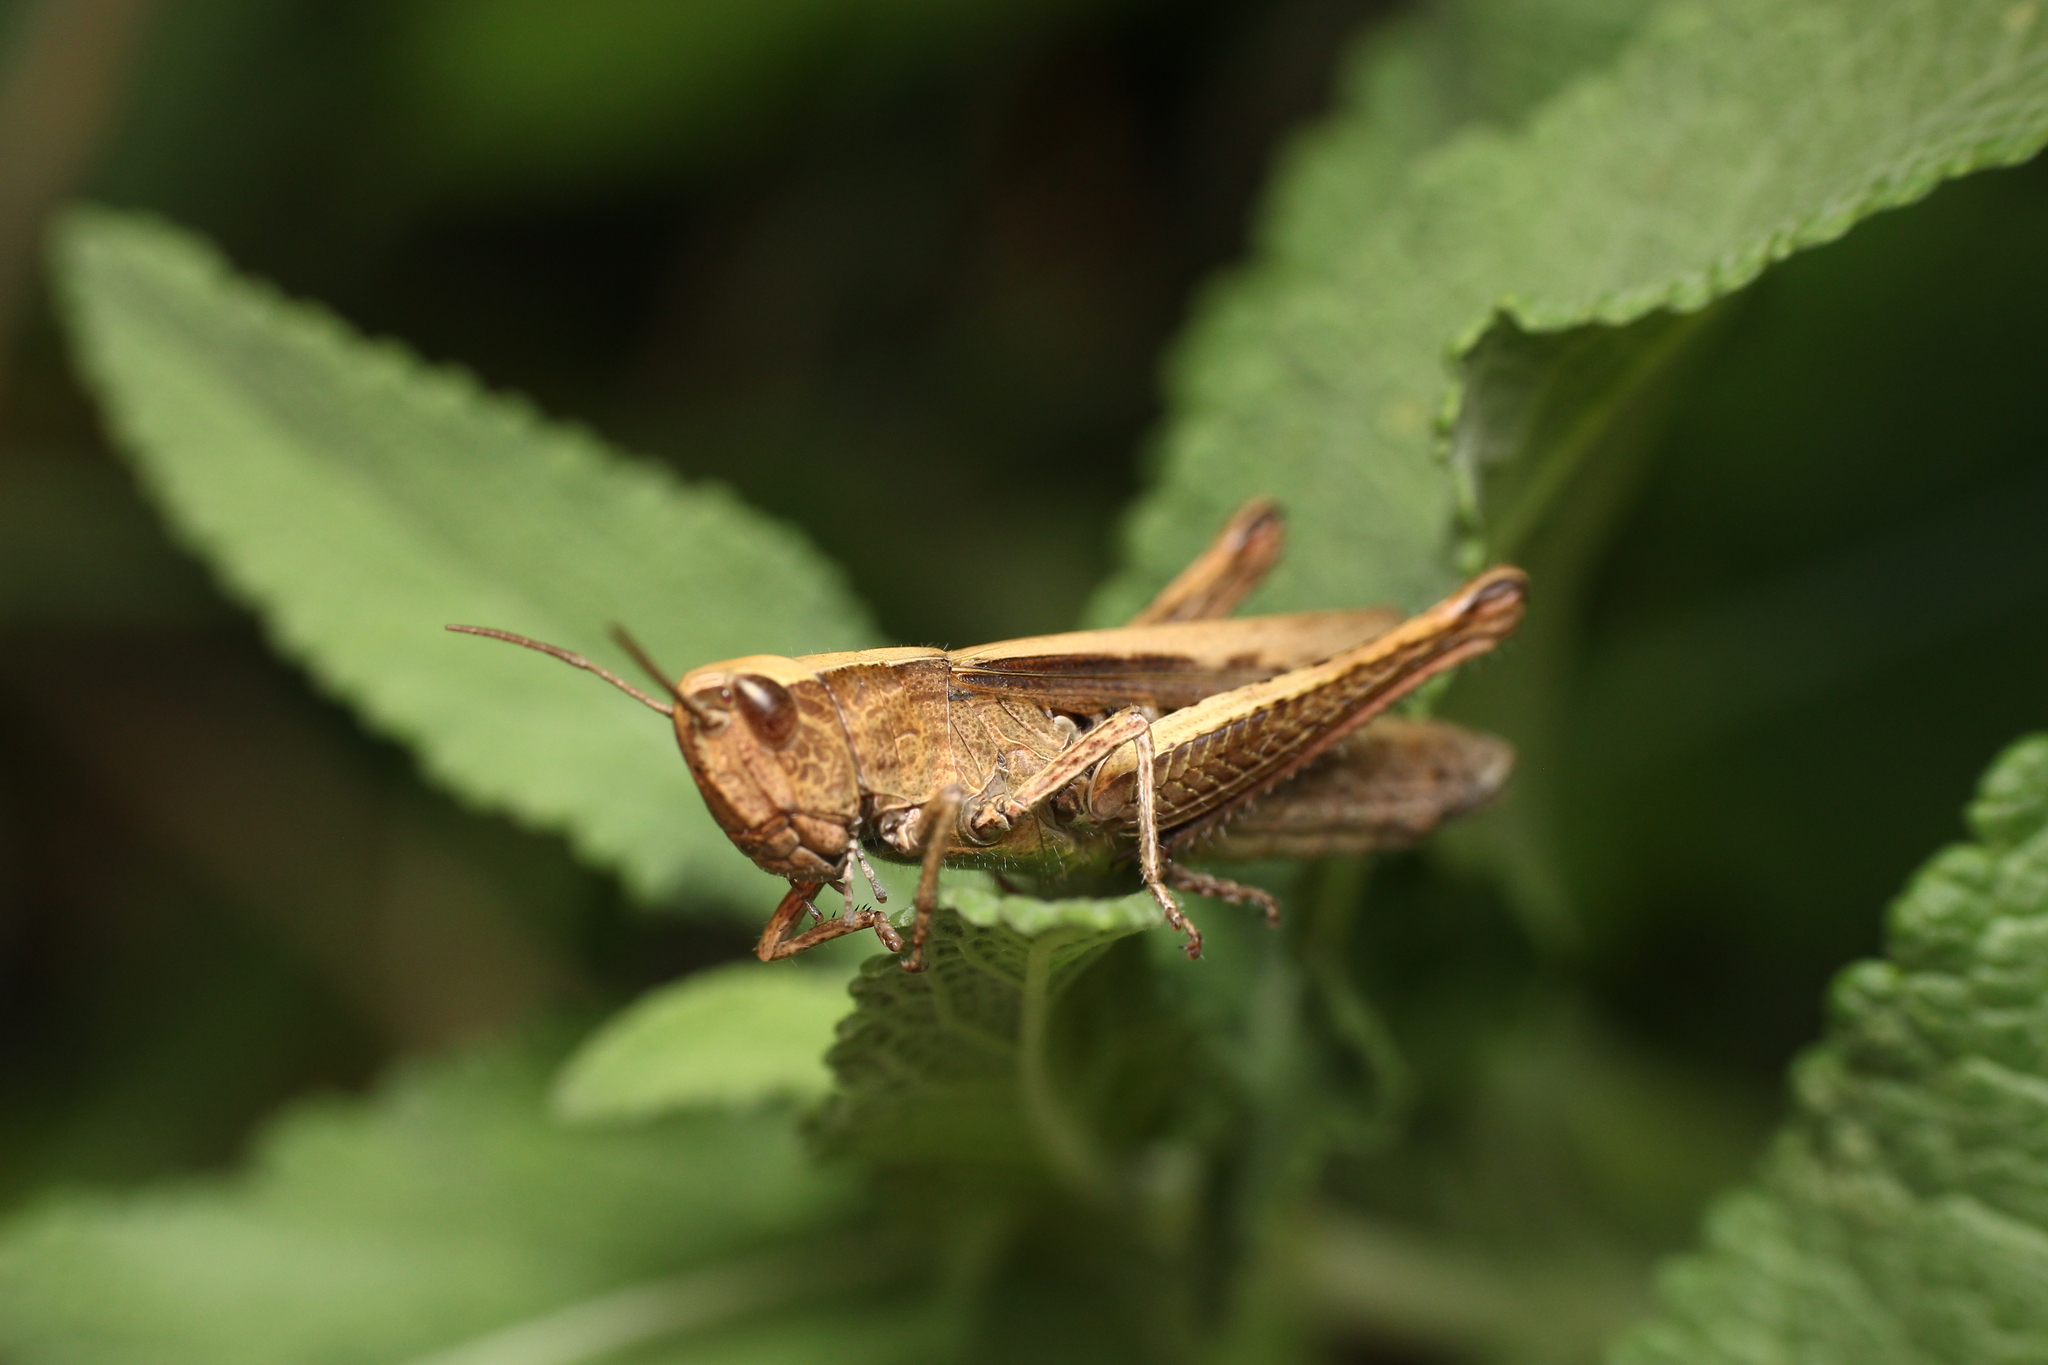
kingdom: Animalia
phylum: Arthropoda
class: Insecta
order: Orthoptera
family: Acrididae
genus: Chorthippus
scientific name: Chorthippus dorsatus
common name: Steppe grasshopper
